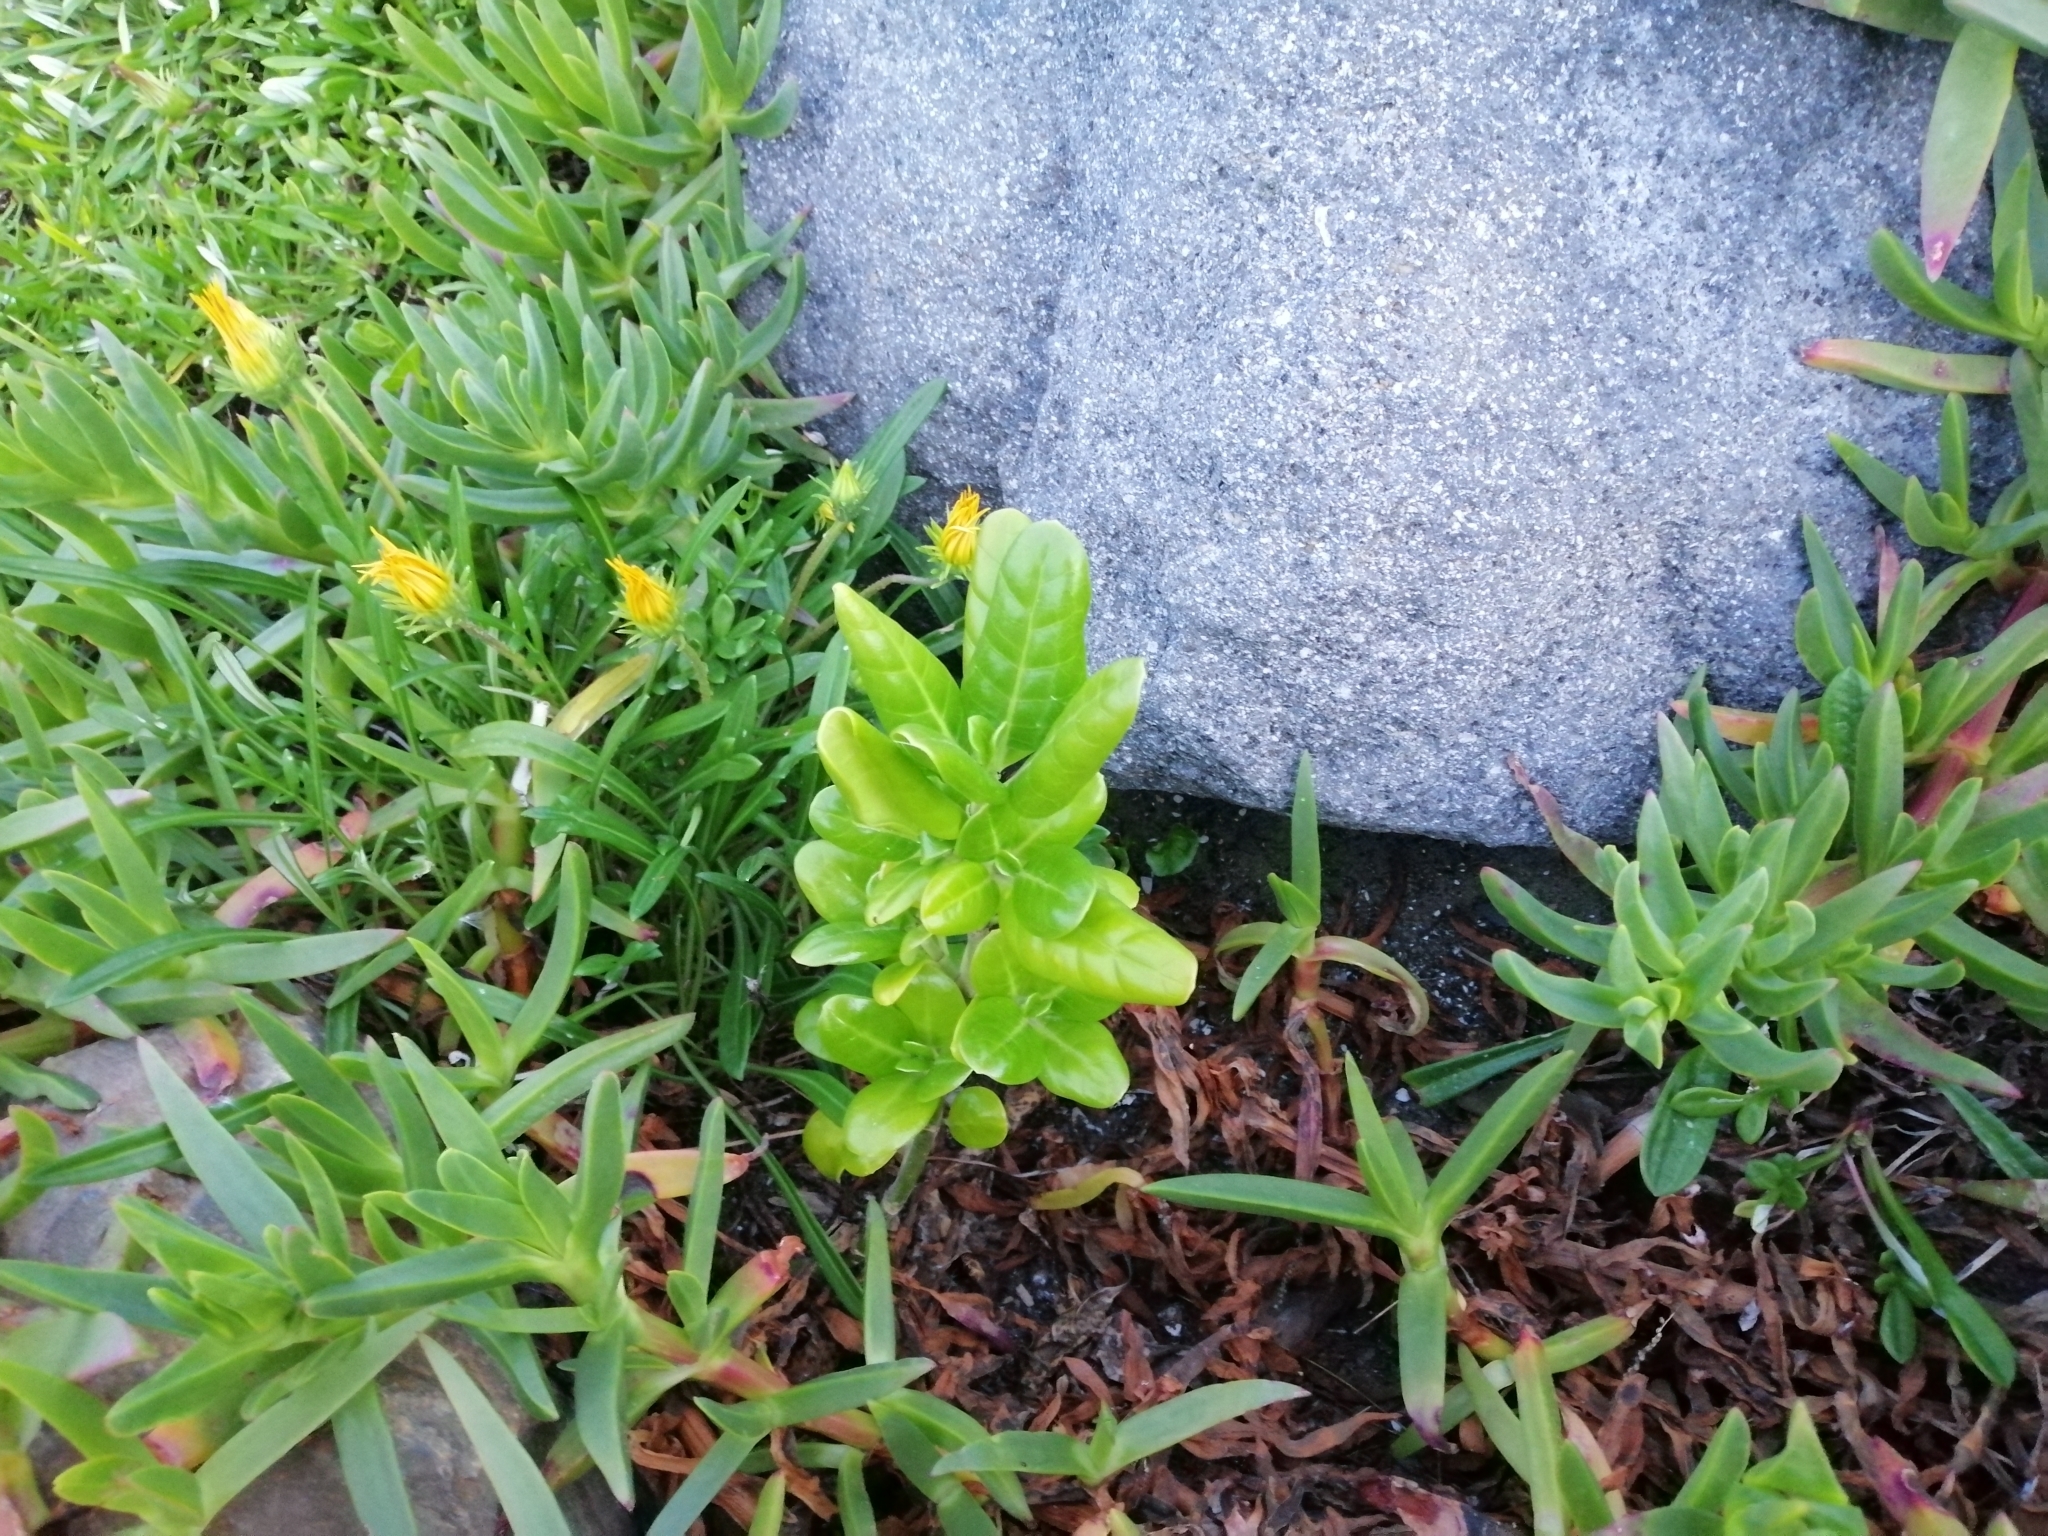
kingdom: Plantae
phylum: Tracheophyta
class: Magnoliopsida
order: Apiales
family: Apiaceae
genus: Apium
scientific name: Apium prostratum
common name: Prostrate marshwort
